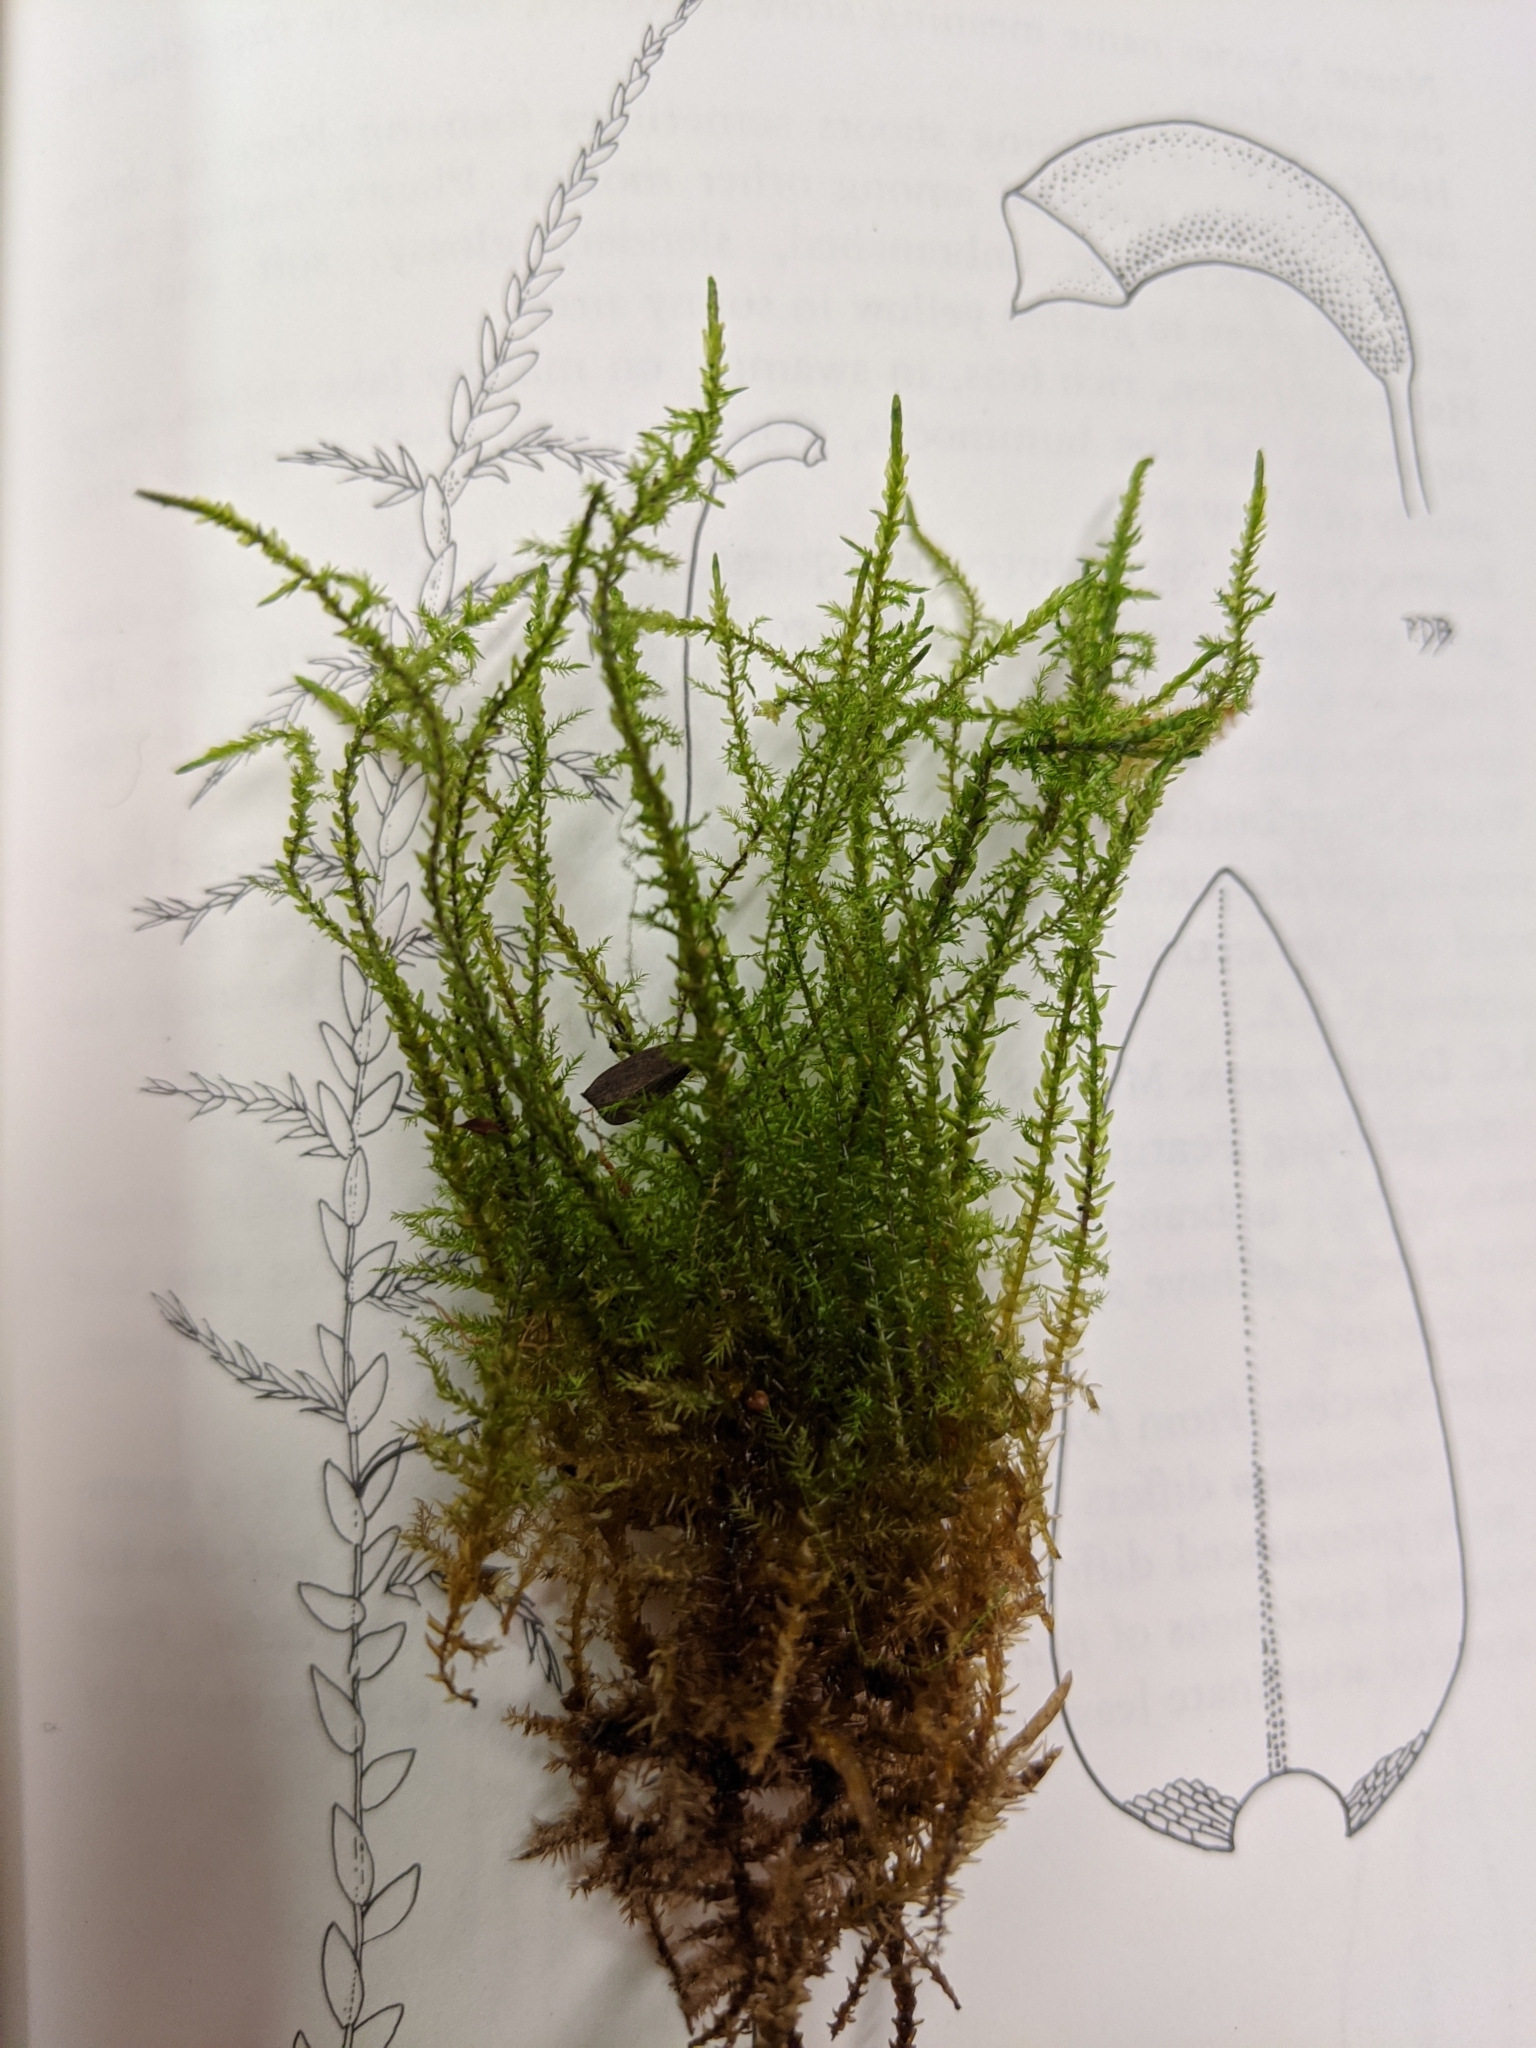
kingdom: Plantae
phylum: Bryophyta
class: Bryopsida
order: Hypnales
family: Calliergonaceae
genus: Calliergon
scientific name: Calliergon giganteum
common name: Giant spear moss
